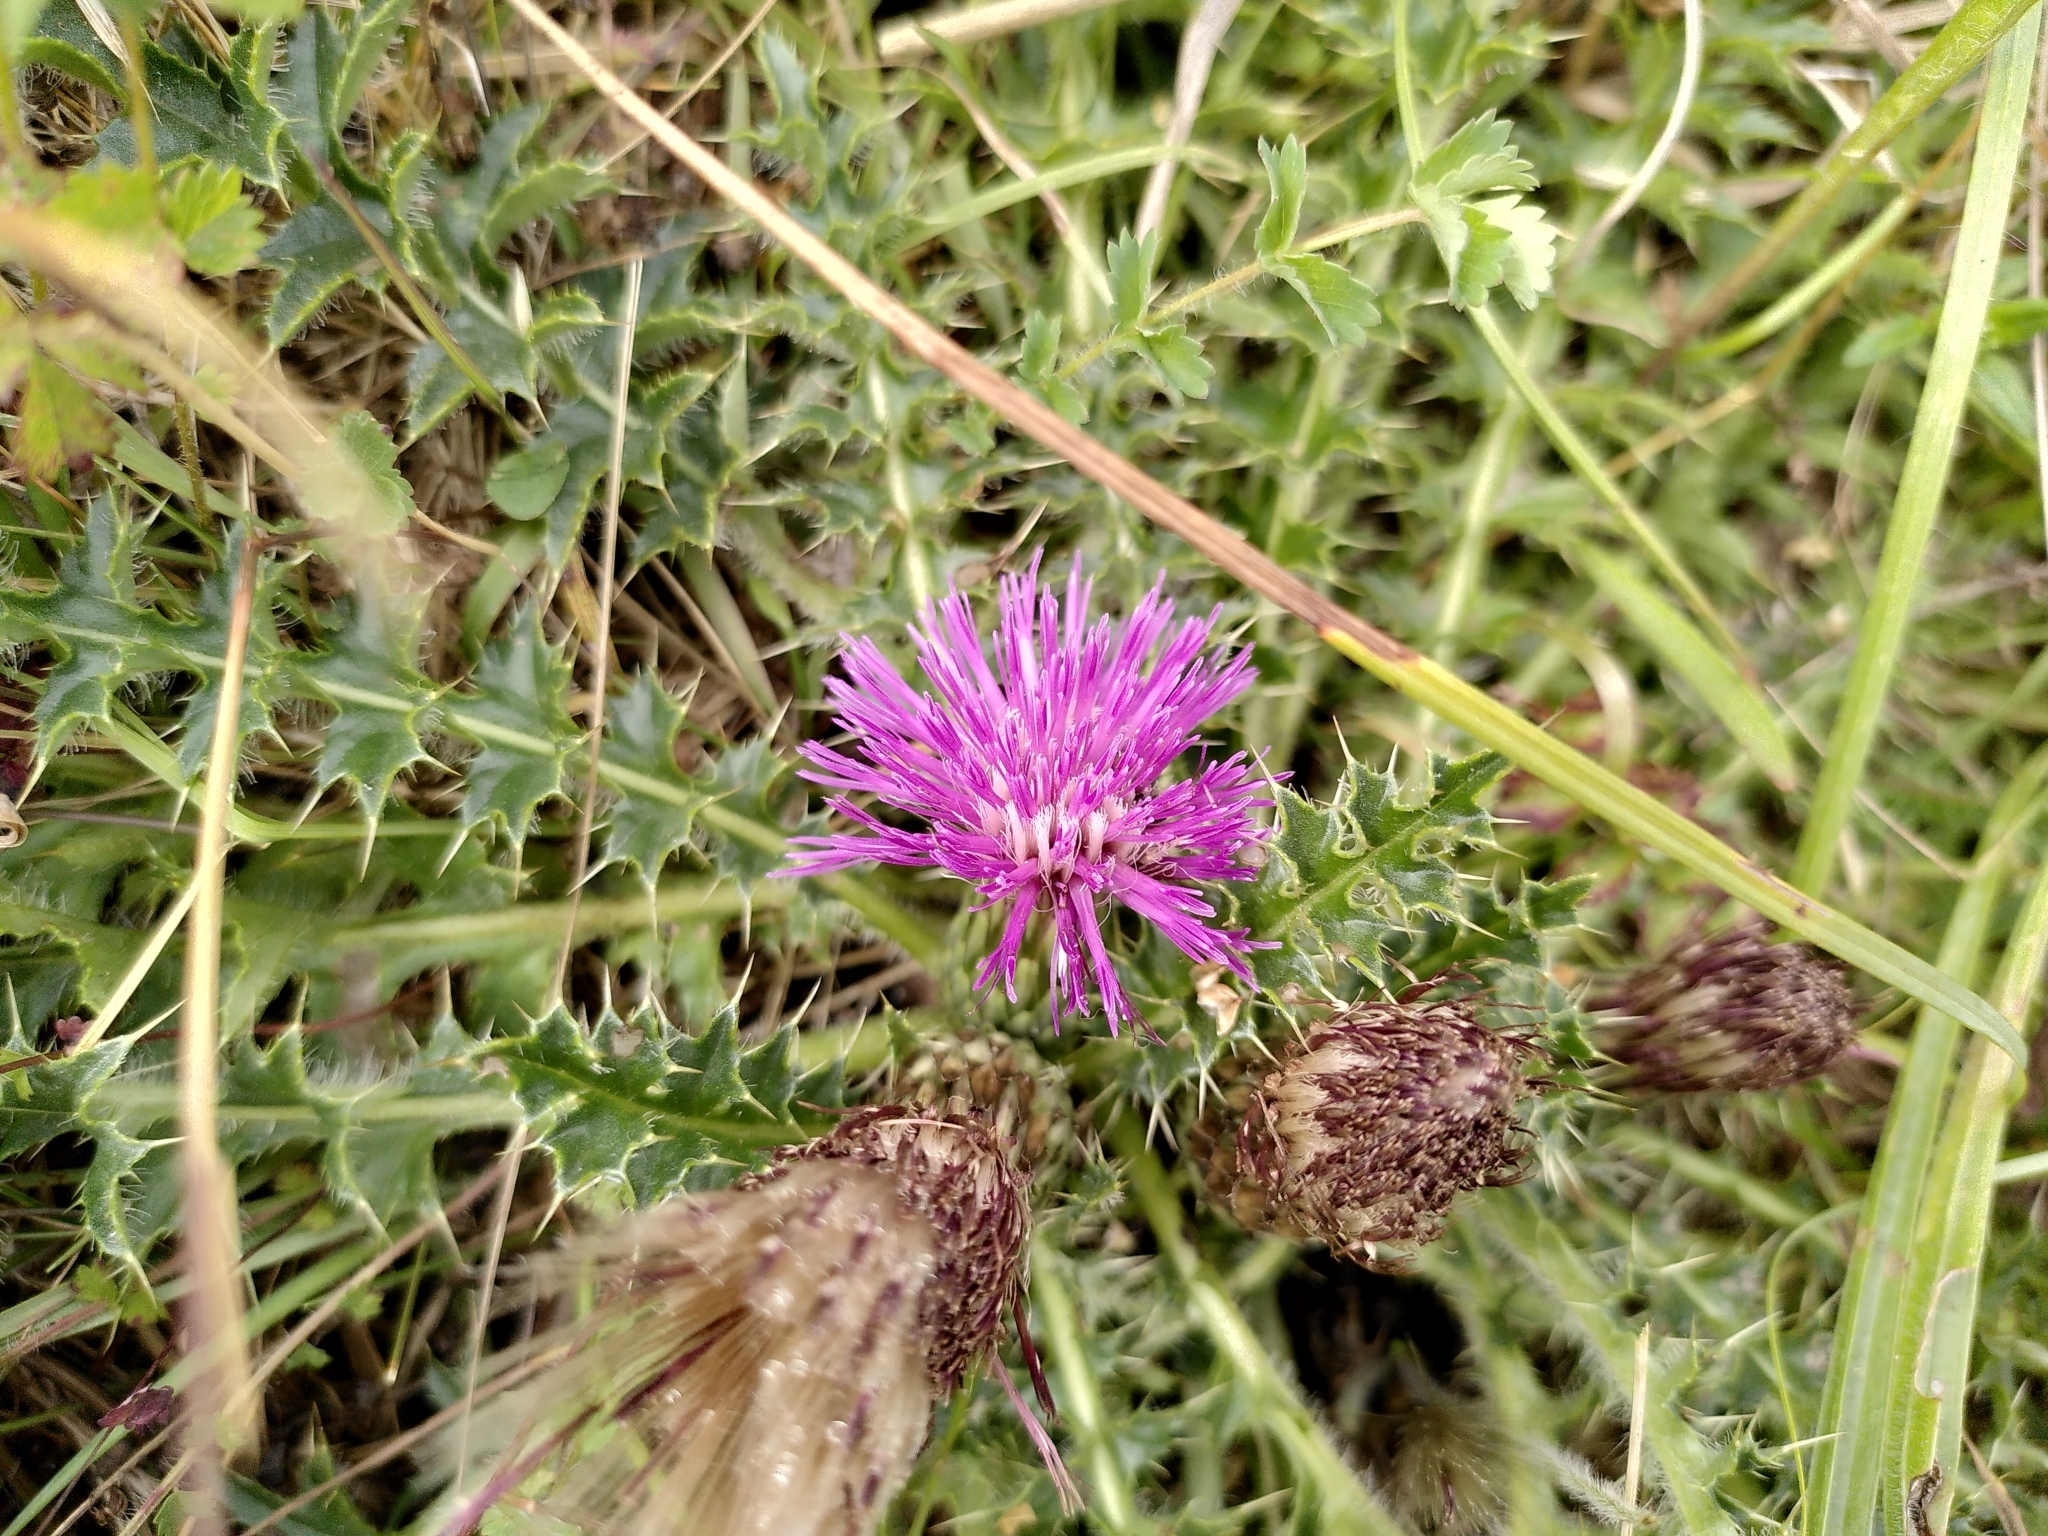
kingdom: Plantae
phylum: Tracheophyta
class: Magnoliopsida
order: Asterales
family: Asteraceae
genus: Cirsium
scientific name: Cirsium acaulon
